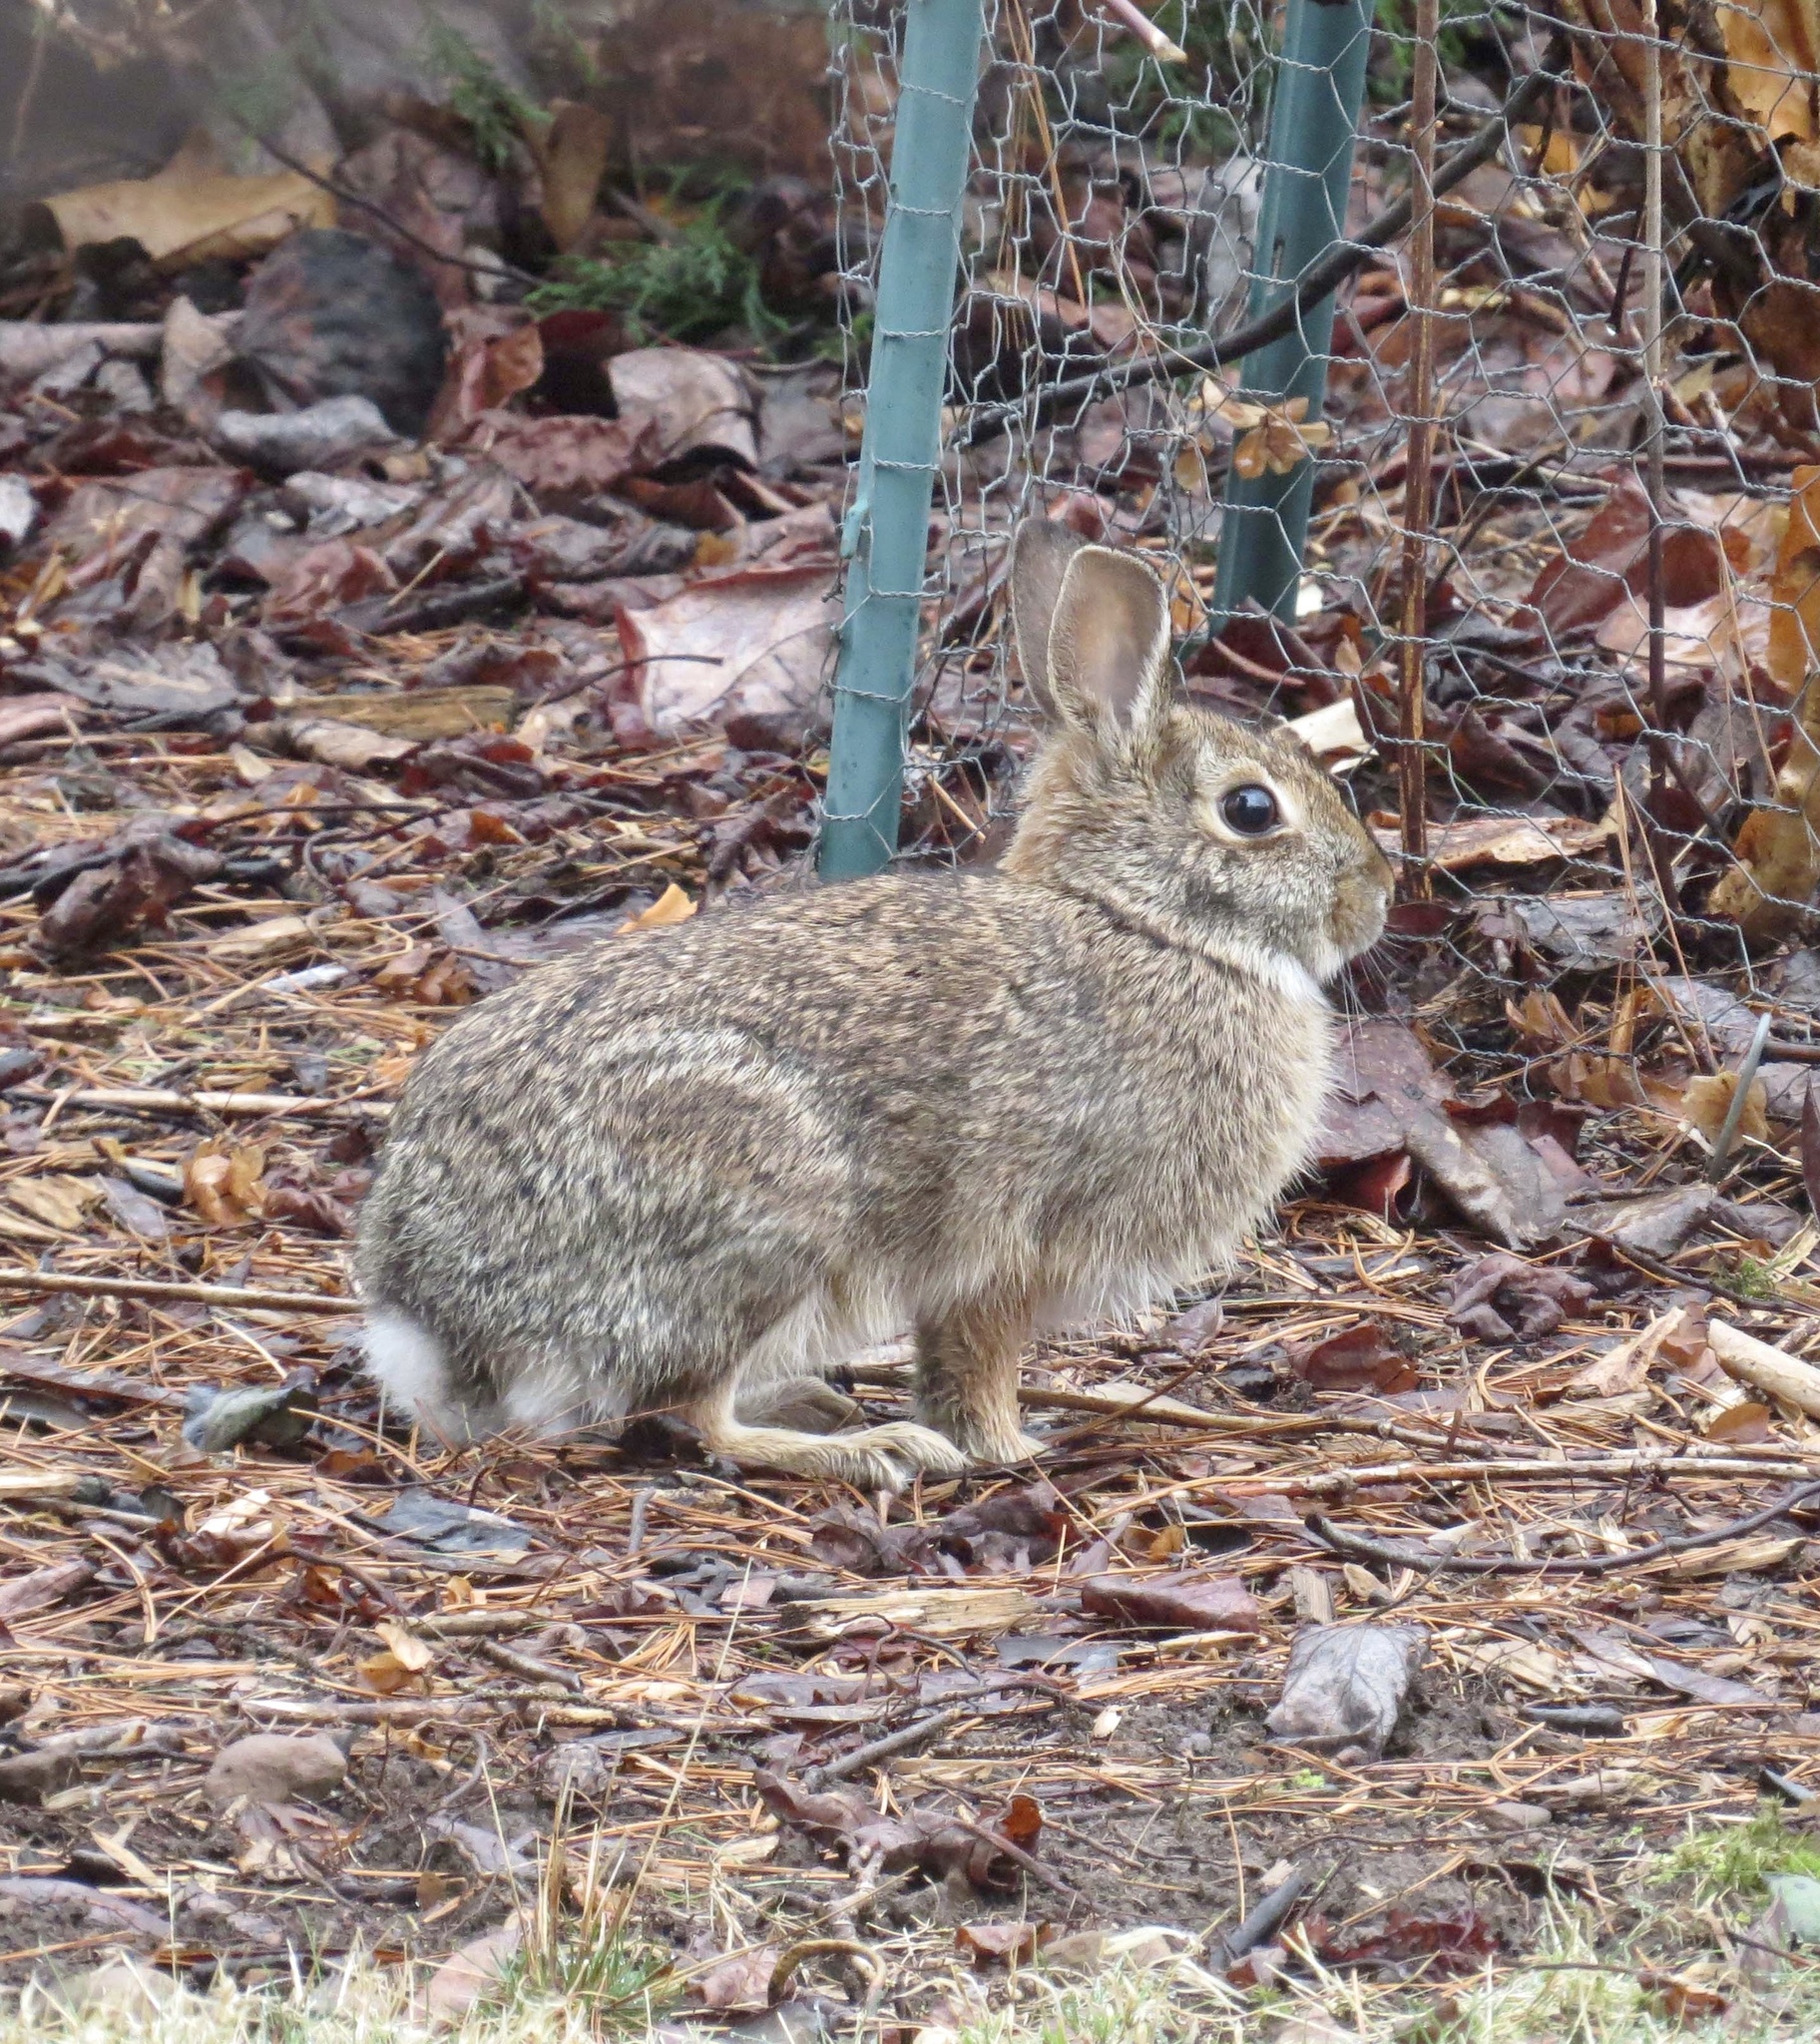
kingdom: Animalia
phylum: Chordata
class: Mammalia
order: Lagomorpha
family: Leporidae
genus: Sylvilagus
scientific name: Sylvilagus floridanus
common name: Eastern cottontail
